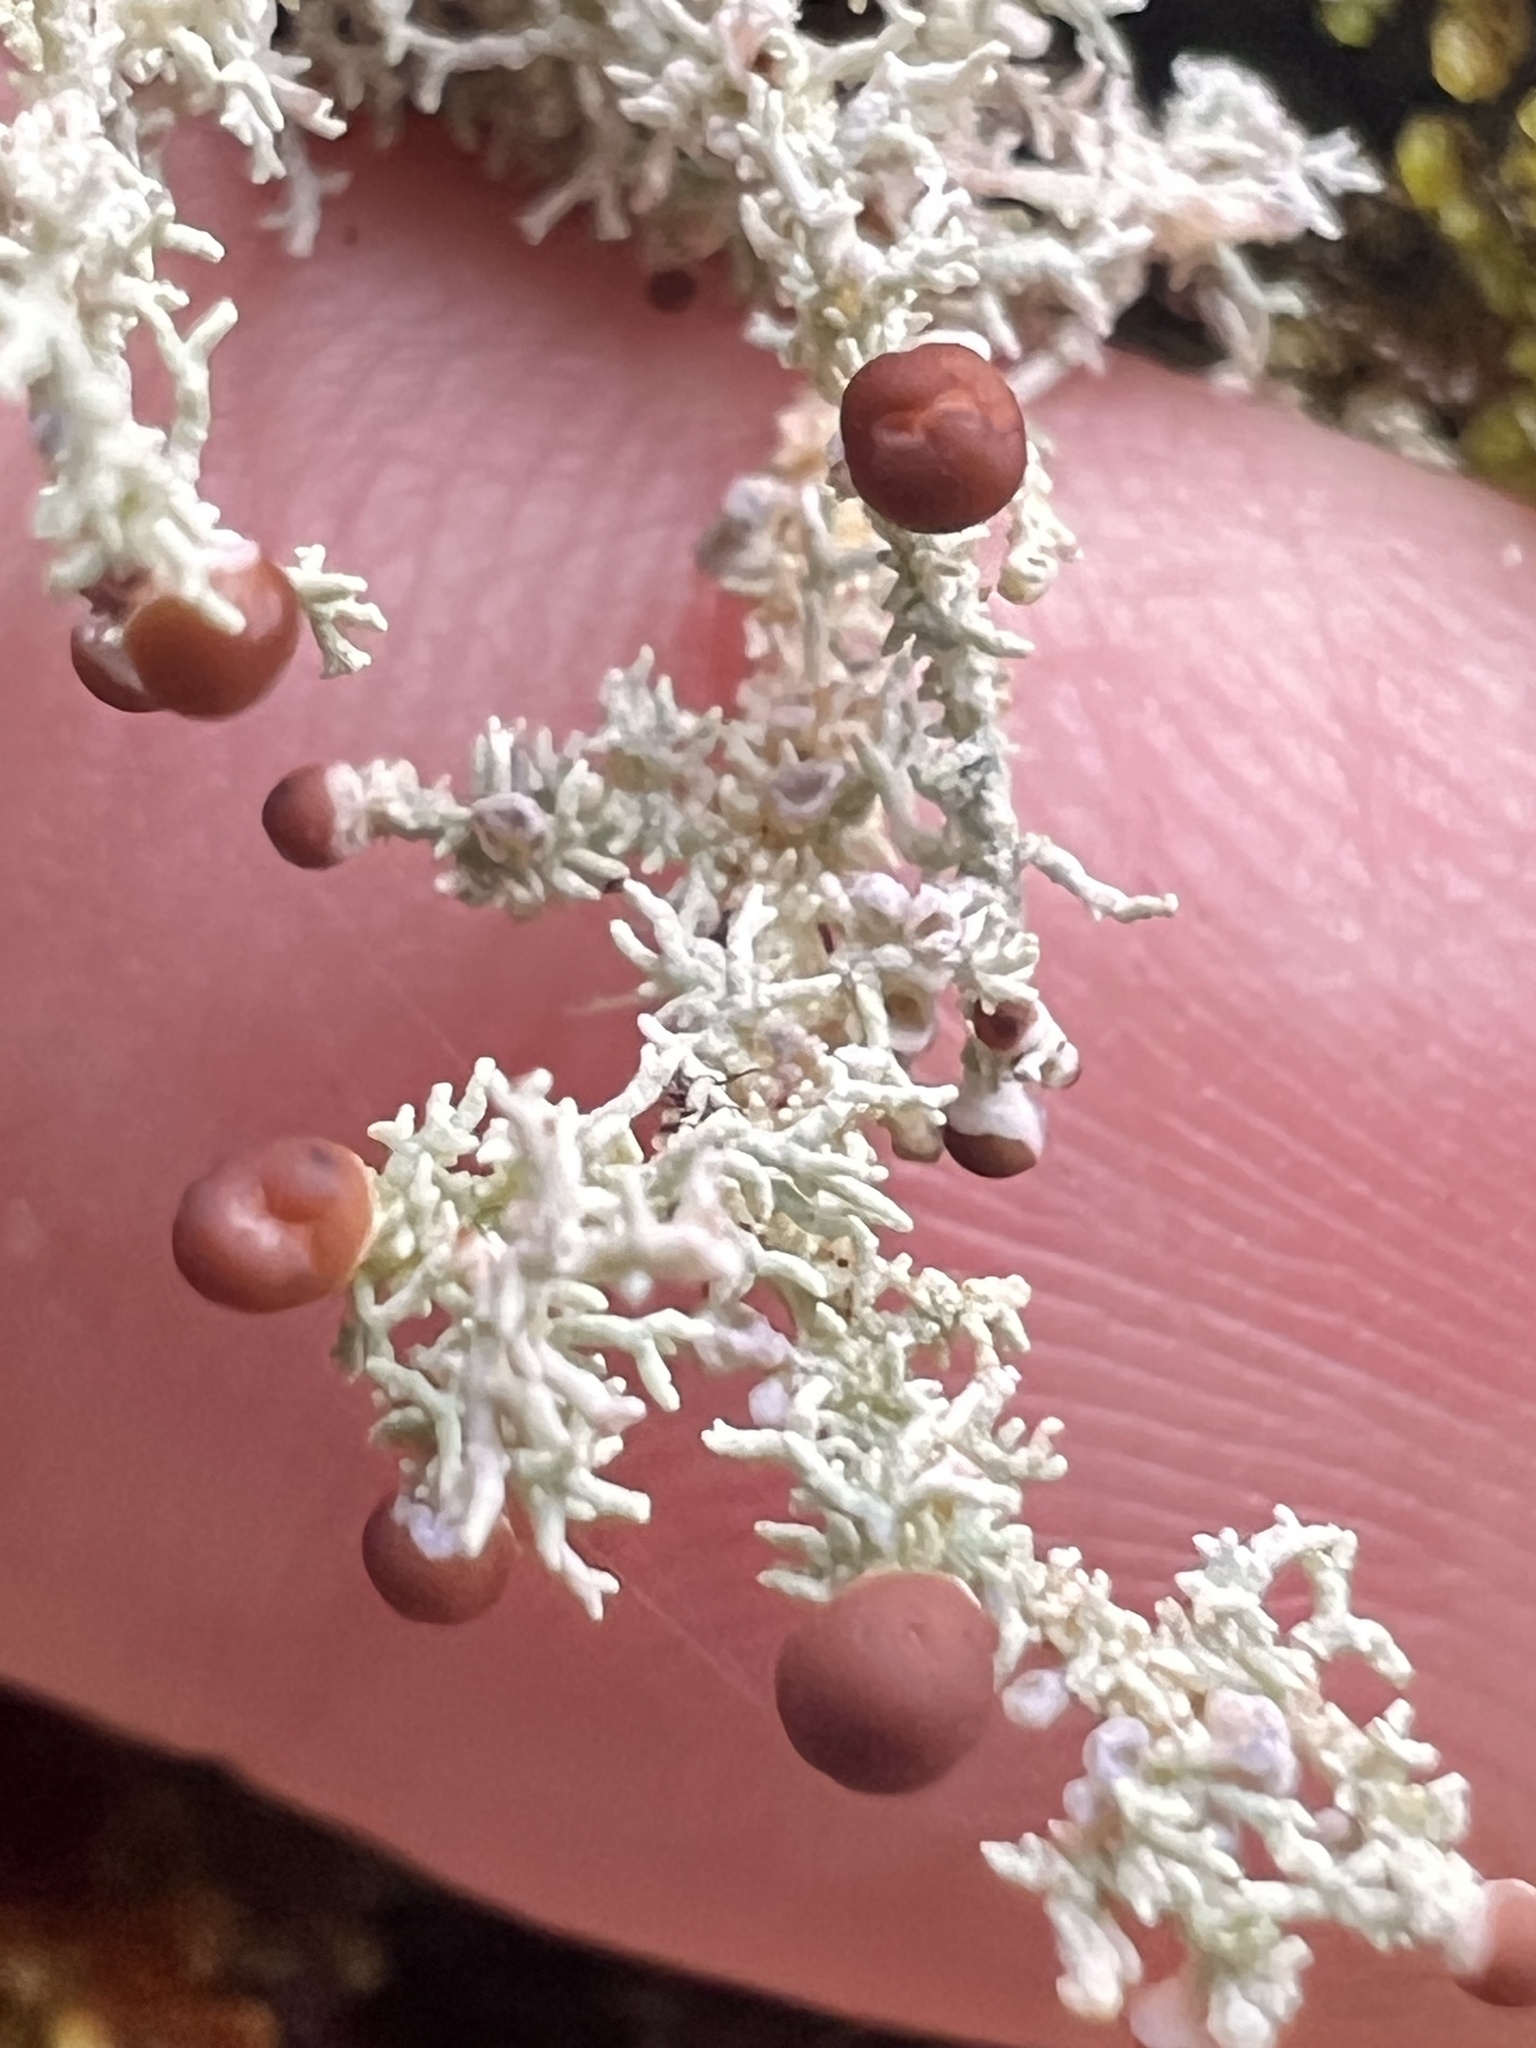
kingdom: Fungi
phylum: Ascomycota
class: Lecanoromycetes
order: Lecanorales
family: Stereocaulaceae
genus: Stereocaulon
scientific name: Stereocaulon ramulosum
